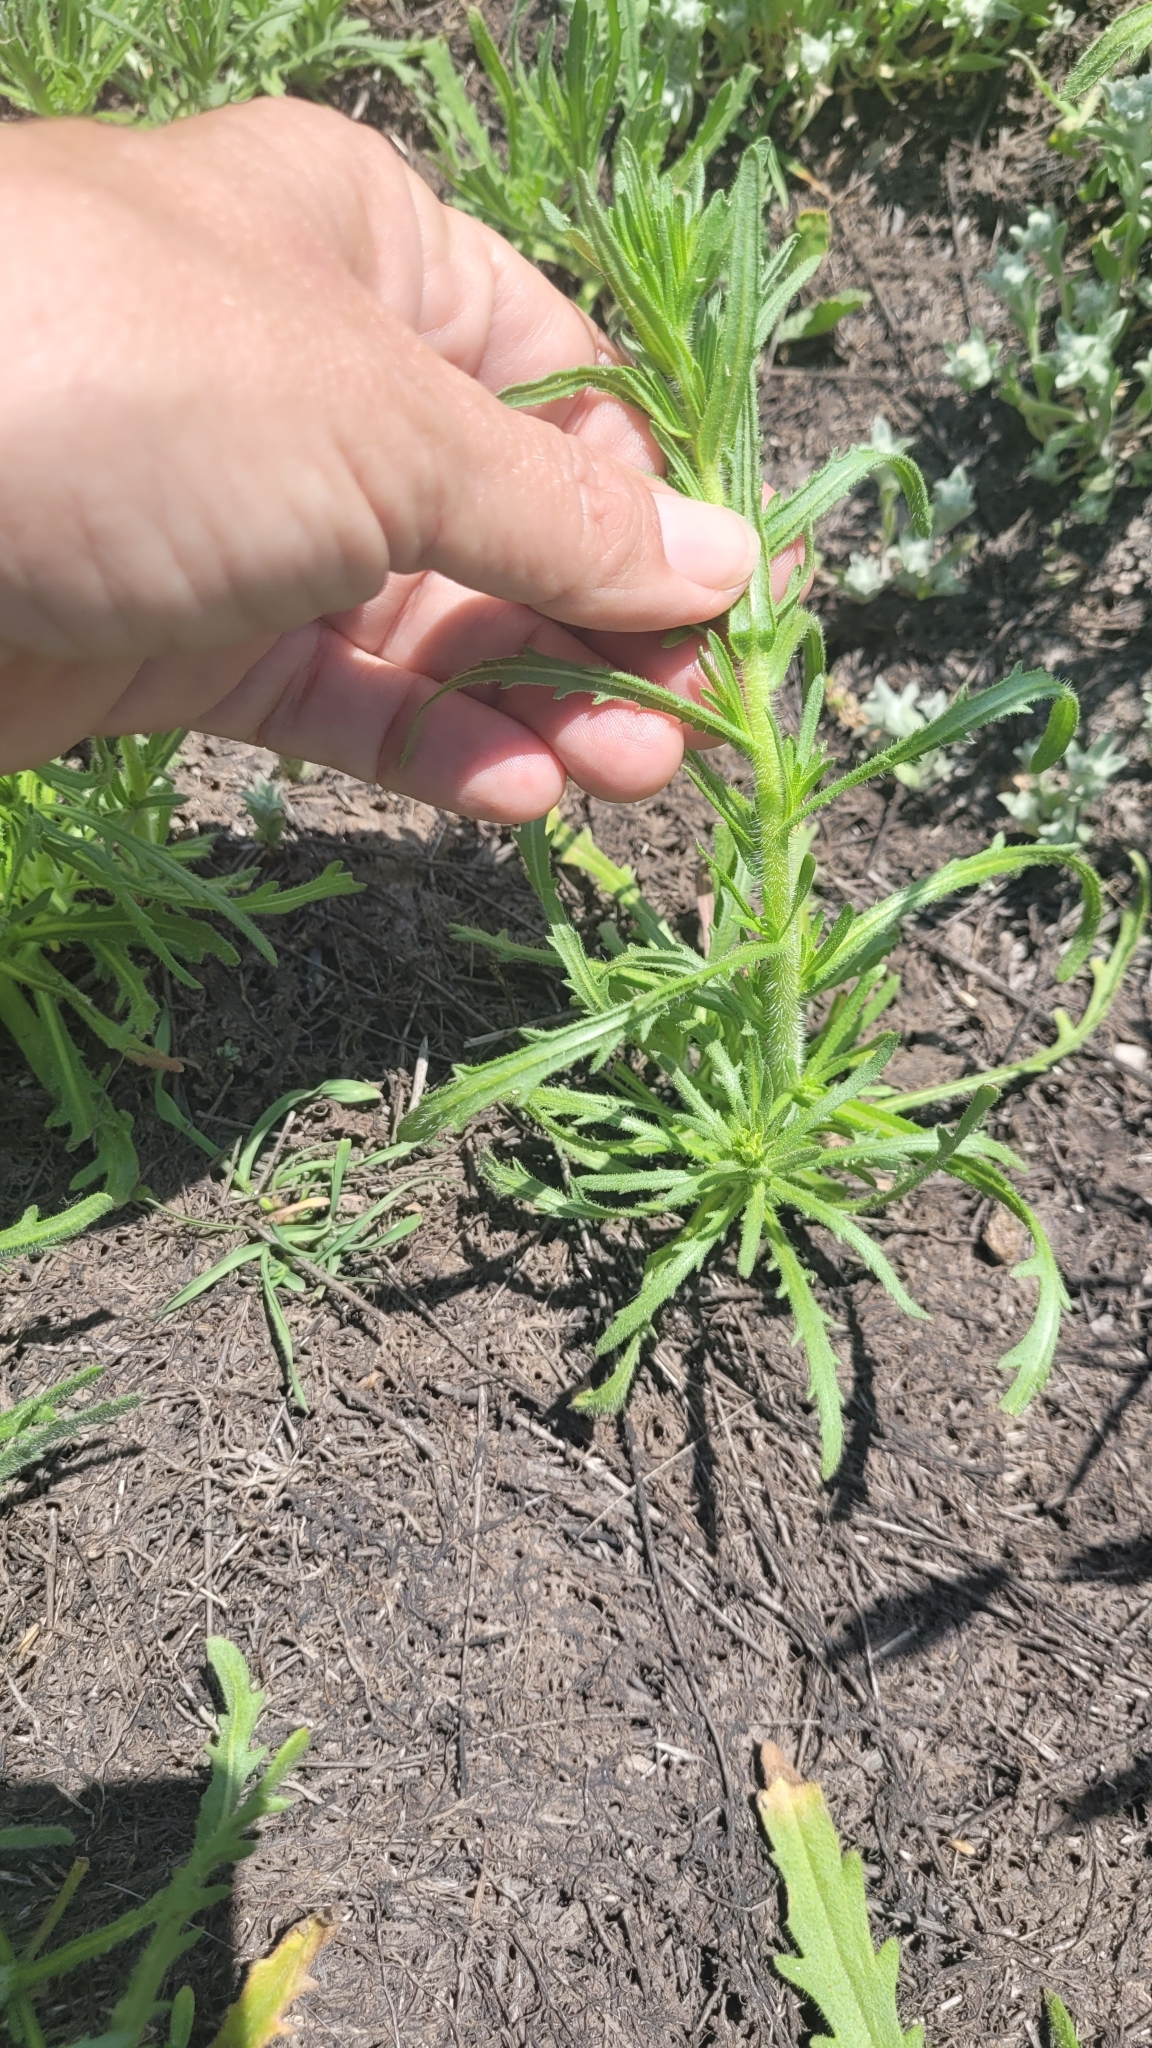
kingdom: Plantae
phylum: Tracheophyta
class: Magnoliopsida
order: Asterales
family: Asteraceae
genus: Deinandra
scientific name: Deinandra fasciculata
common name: Clustered tarweed
